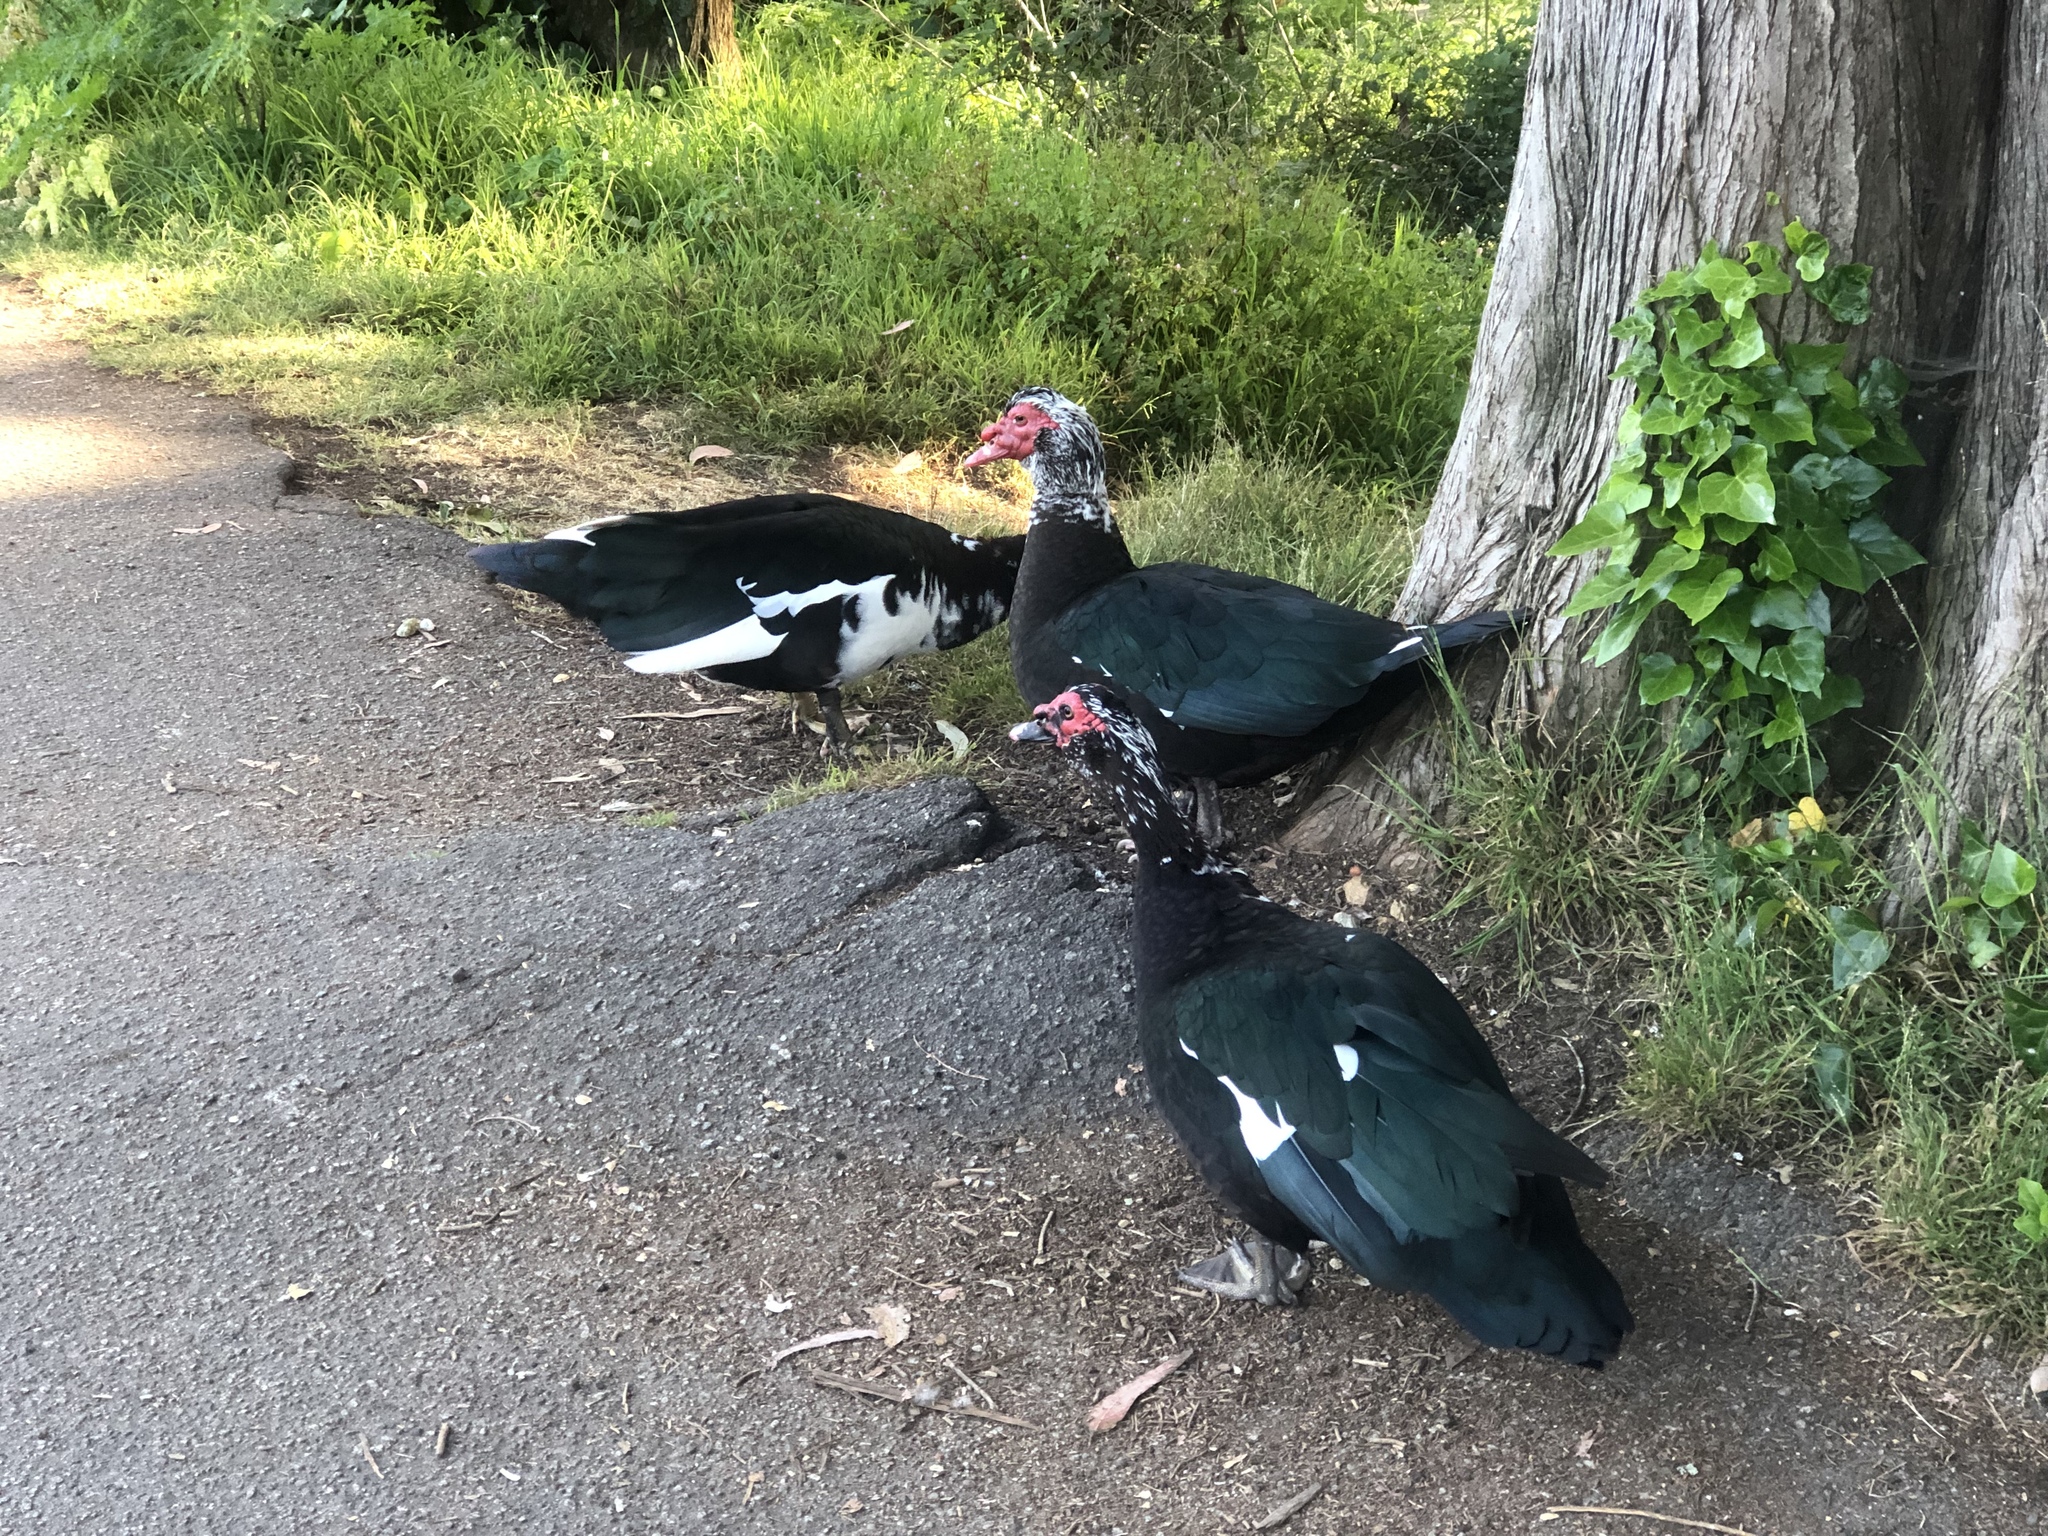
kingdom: Animalia
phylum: Chordata
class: Aves
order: Anseriformes
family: Anatidae
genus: Cairina
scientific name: Cairina moschata
